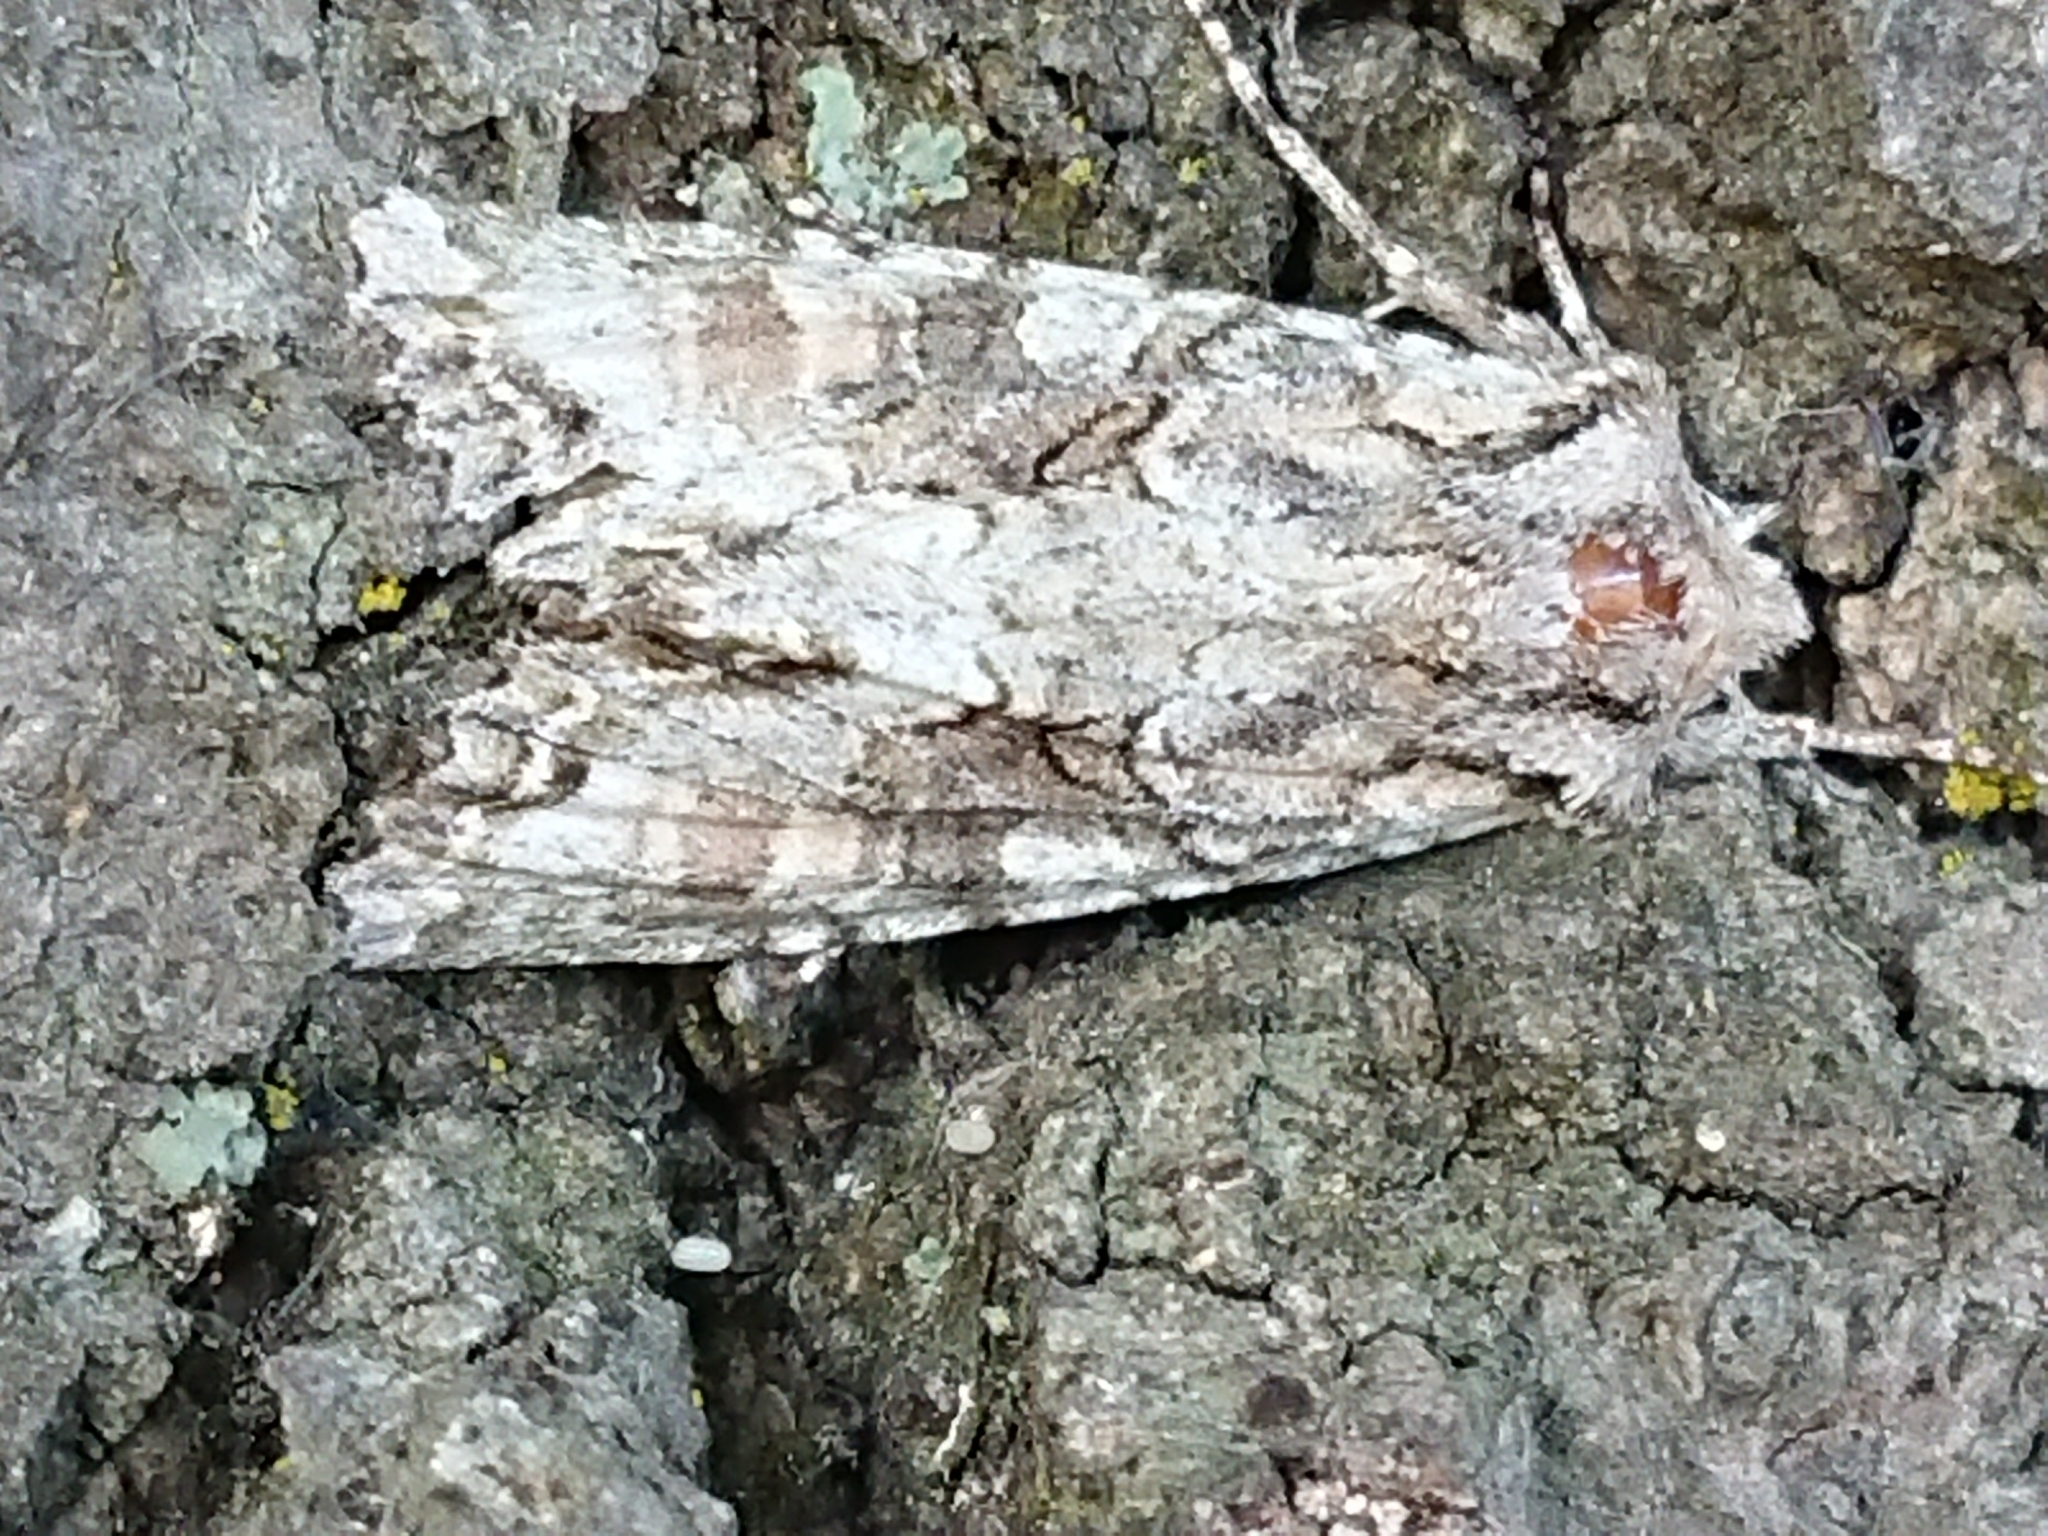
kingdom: Animalia
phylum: Arthropoda
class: Insecta
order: Lepidoptera
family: Noctuidae
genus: Ichneutica
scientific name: Ichneutica mutans
